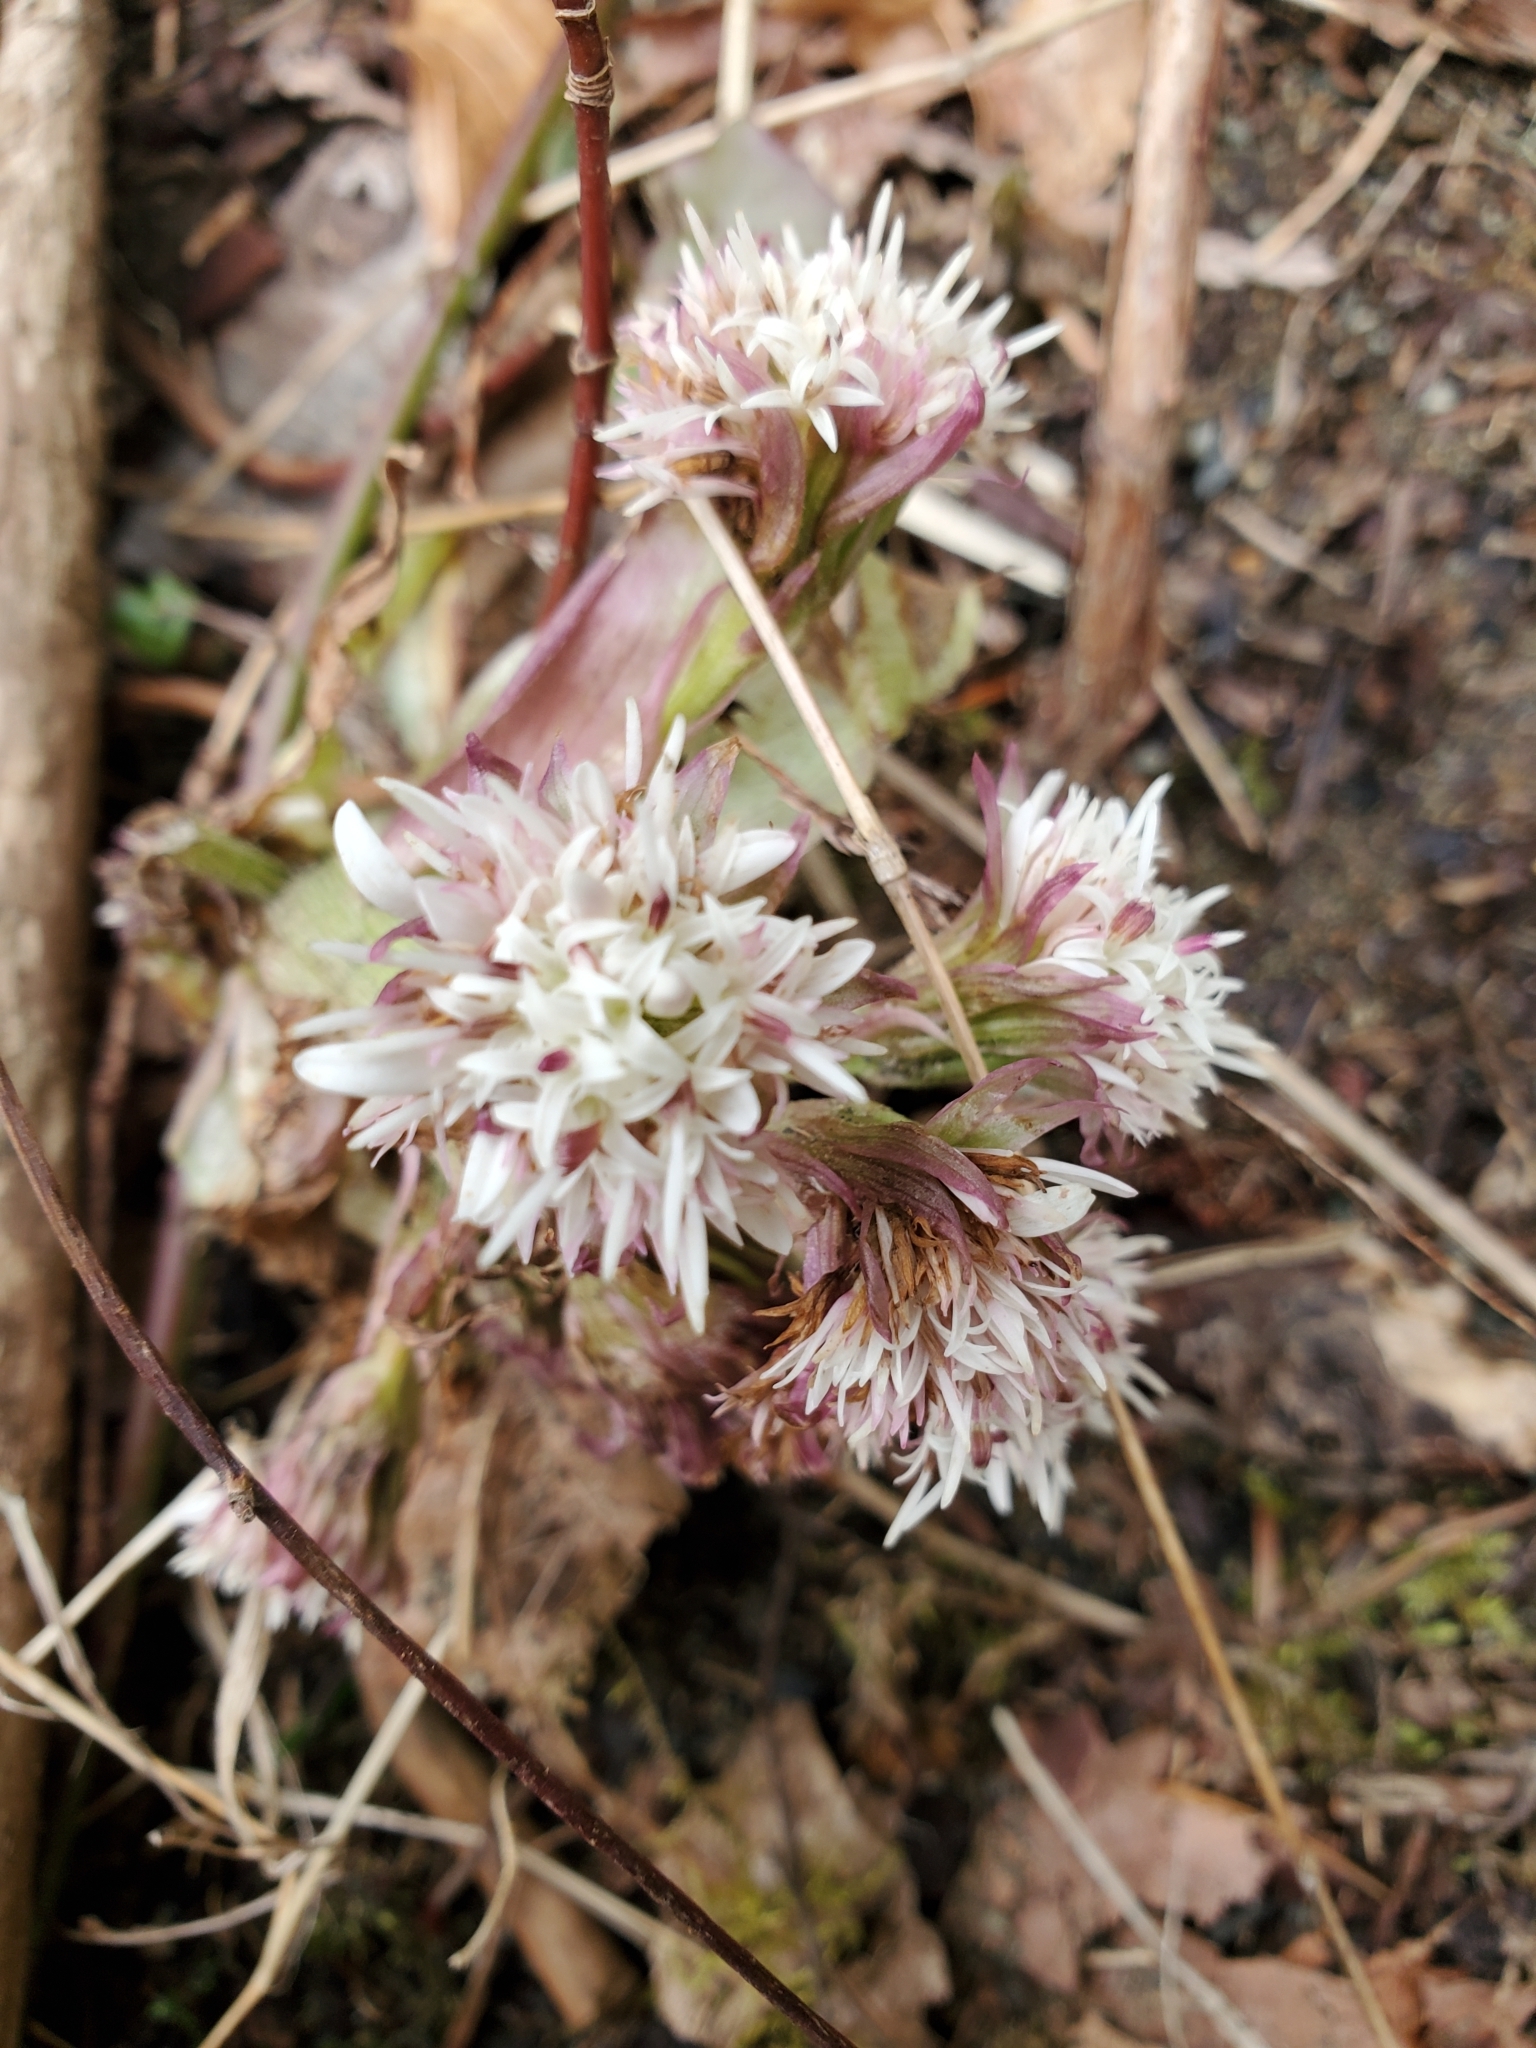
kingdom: Plantae
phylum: Tracheophyta
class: Magnoliopsida
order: Asterales
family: Asteraceae
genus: Petasites
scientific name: Petasites frigidus
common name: Arctic butterbur
